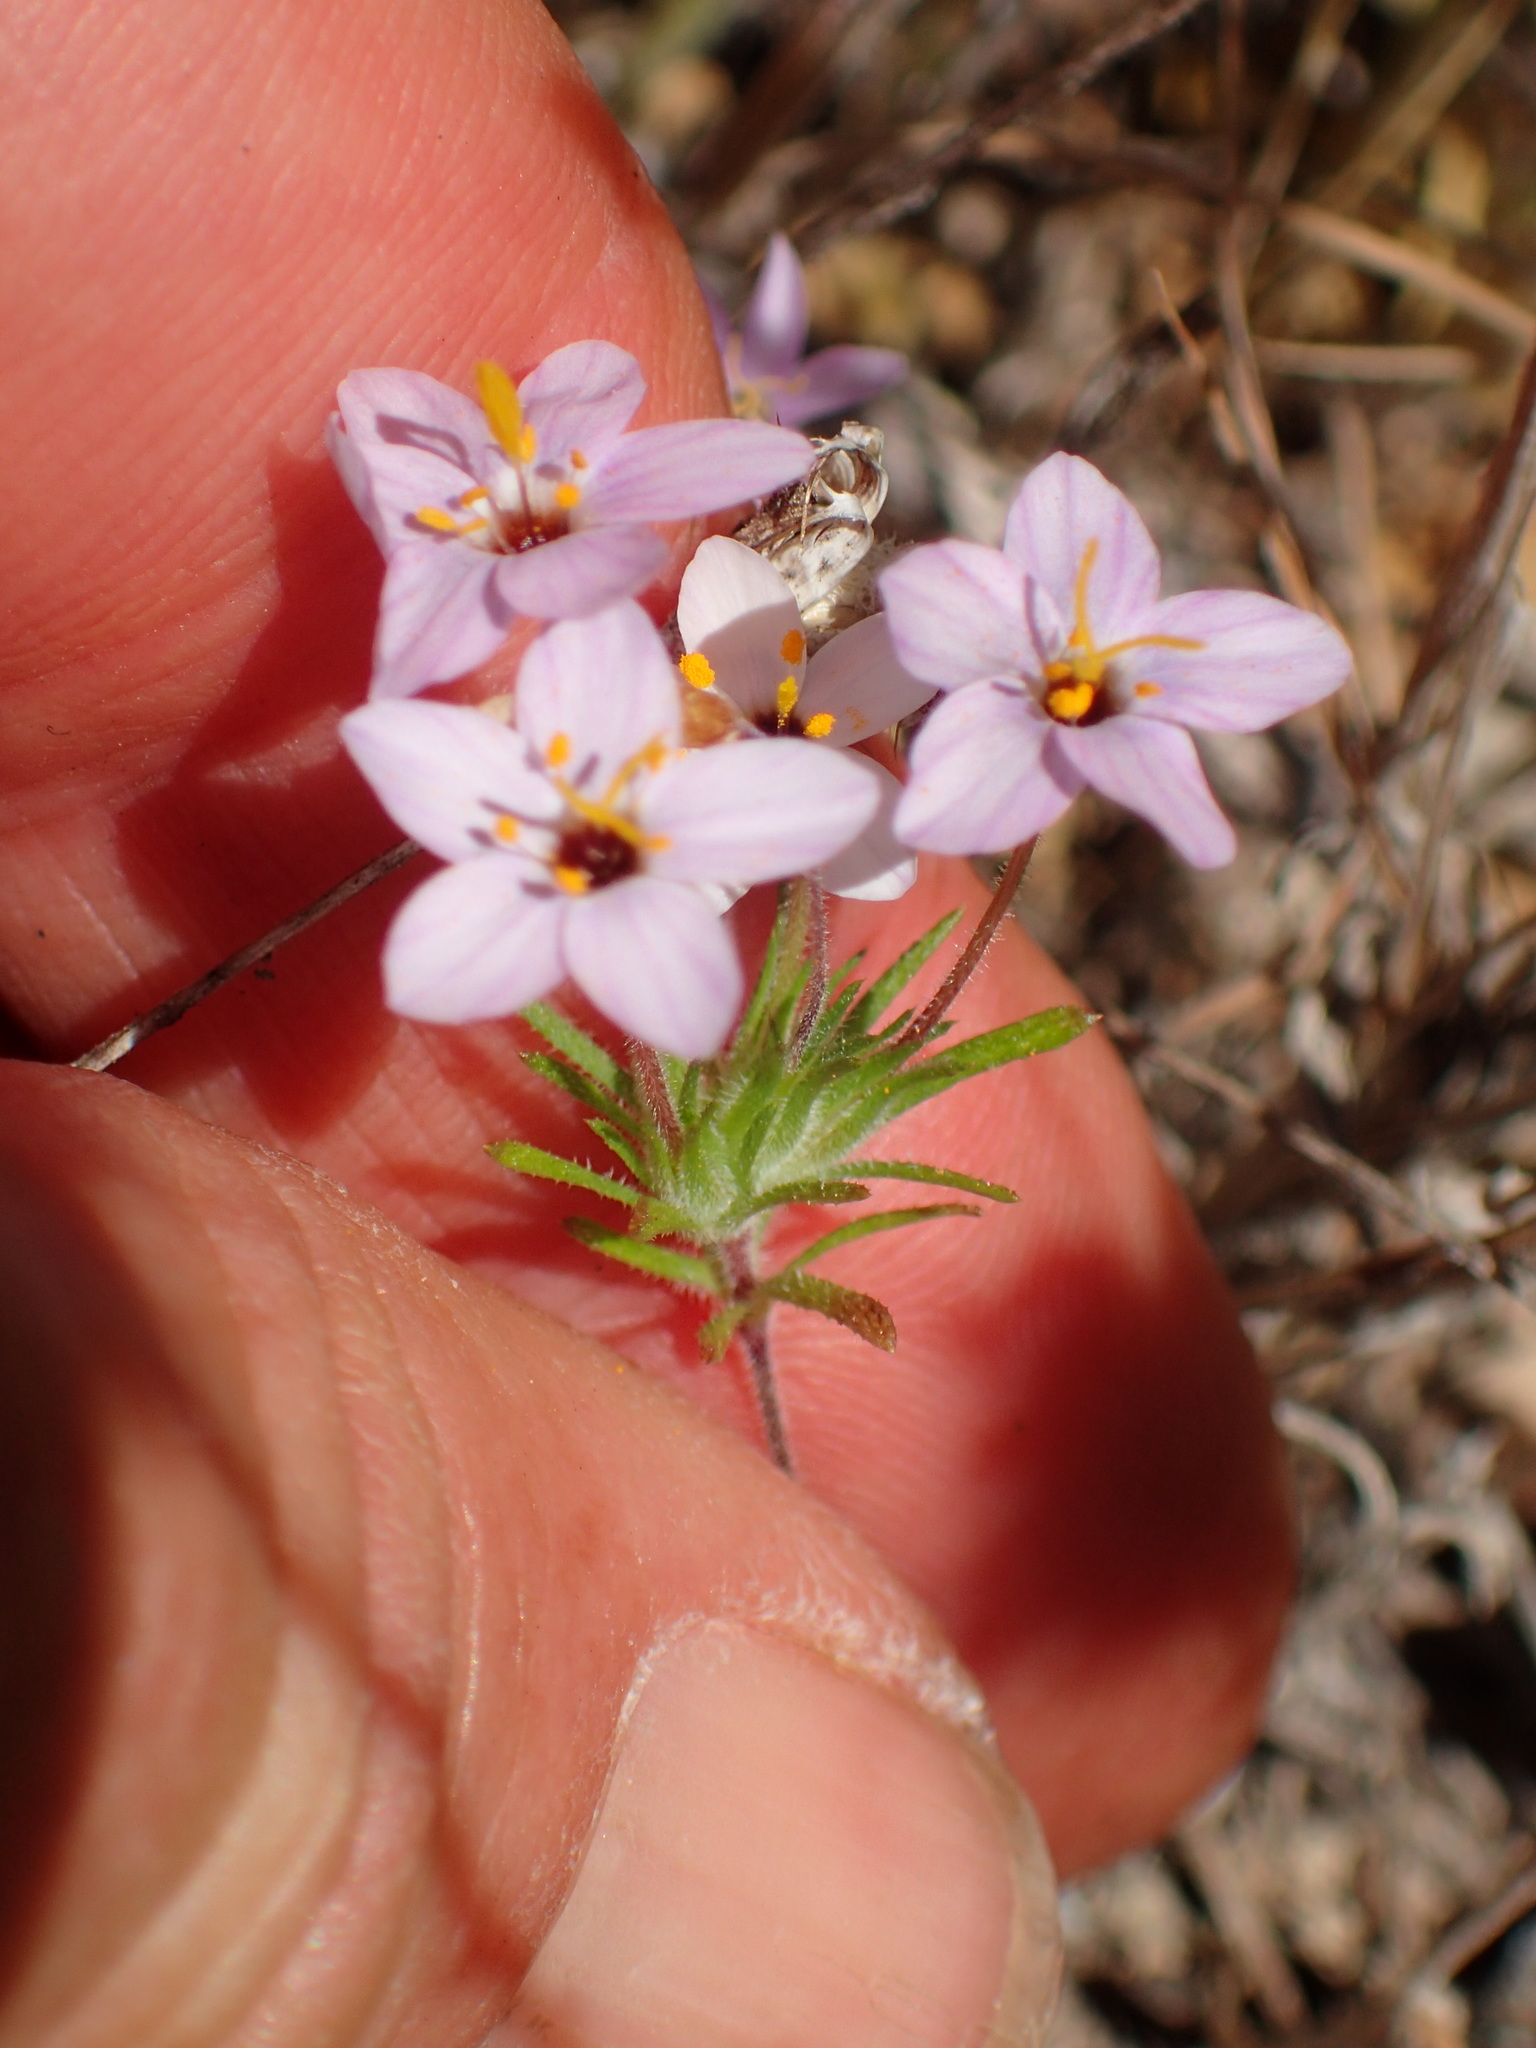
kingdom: Plantae
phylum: Tracheophyta
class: Magnoliopsida
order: Ericales
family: Polemoniaceae
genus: Leptosiphon
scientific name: Leptosiphon parviflorus
